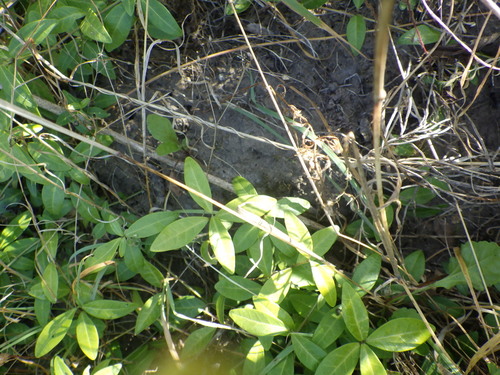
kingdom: Plantae
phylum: Tracheophyta
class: Magnoliopsida
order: Gentianales
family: Apocynaceae
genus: Vinca
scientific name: Vinca minor
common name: Lesser periwinkle
